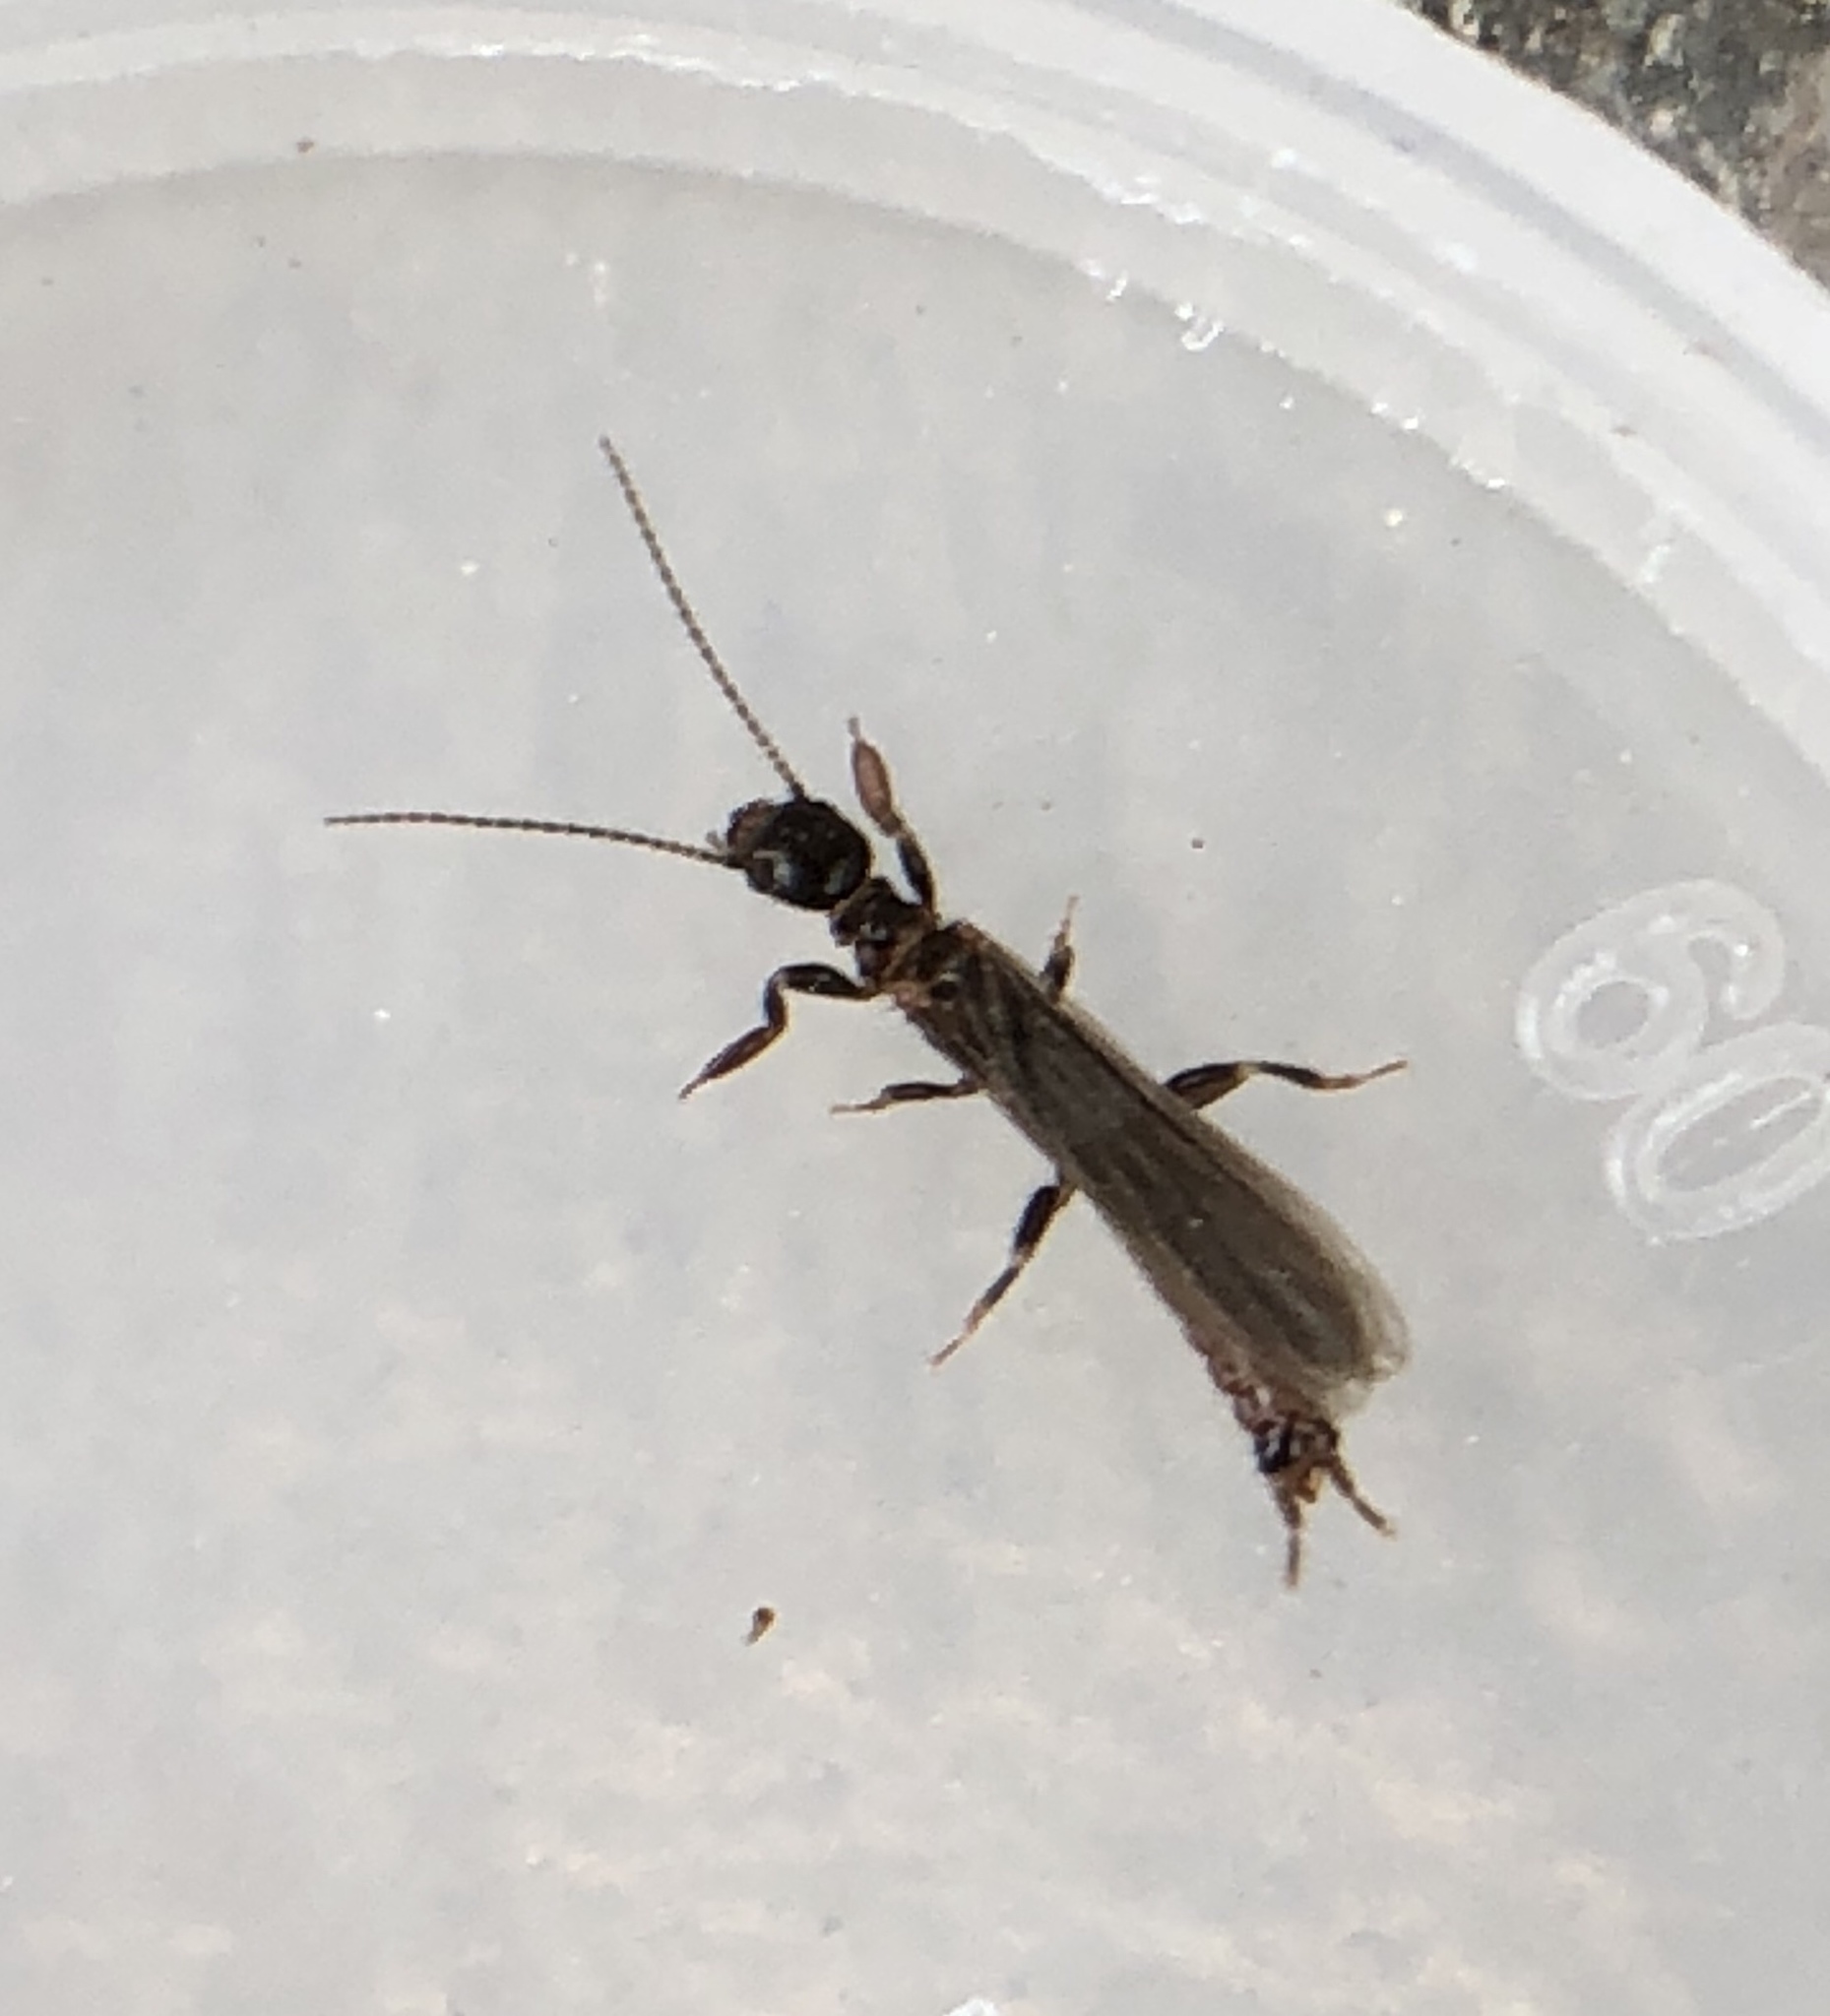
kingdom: Animalia
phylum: Arthropoda
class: Insecta
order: Embioptera
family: Oligotomidae
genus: Oligotoma
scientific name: Oligotoma nigra
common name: Black webspinner
